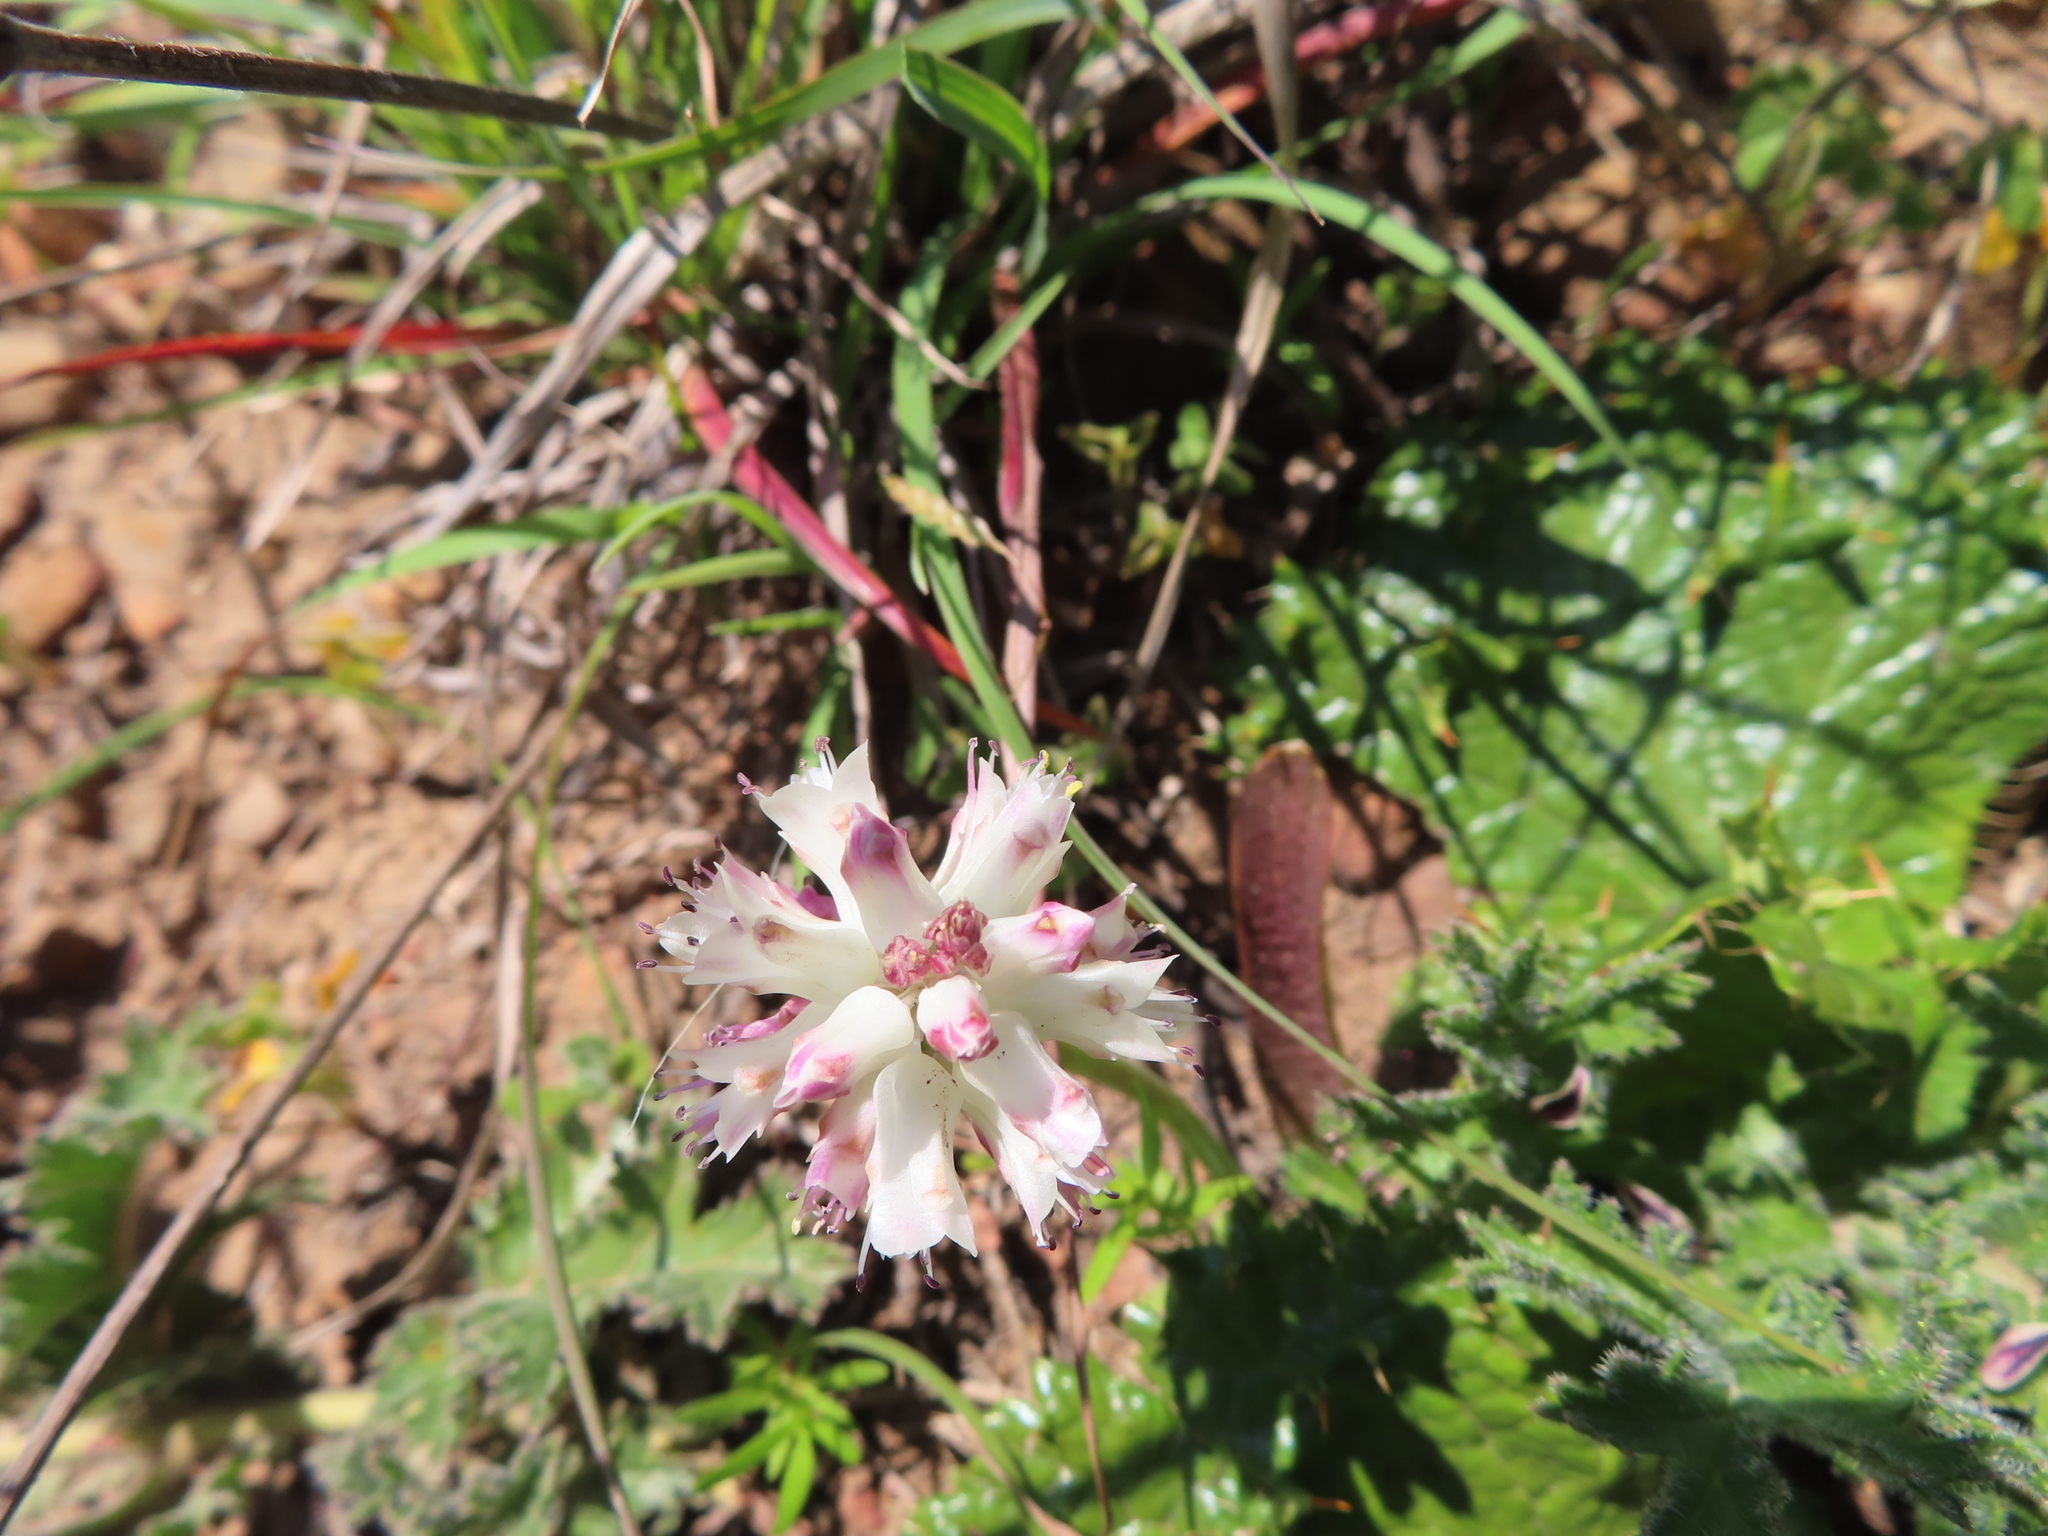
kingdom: Plantae
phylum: Tracheophyta
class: Liliopsida
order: Asparagales
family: Asparagaceae
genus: Lachenalia
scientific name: Lachenalia pallida
